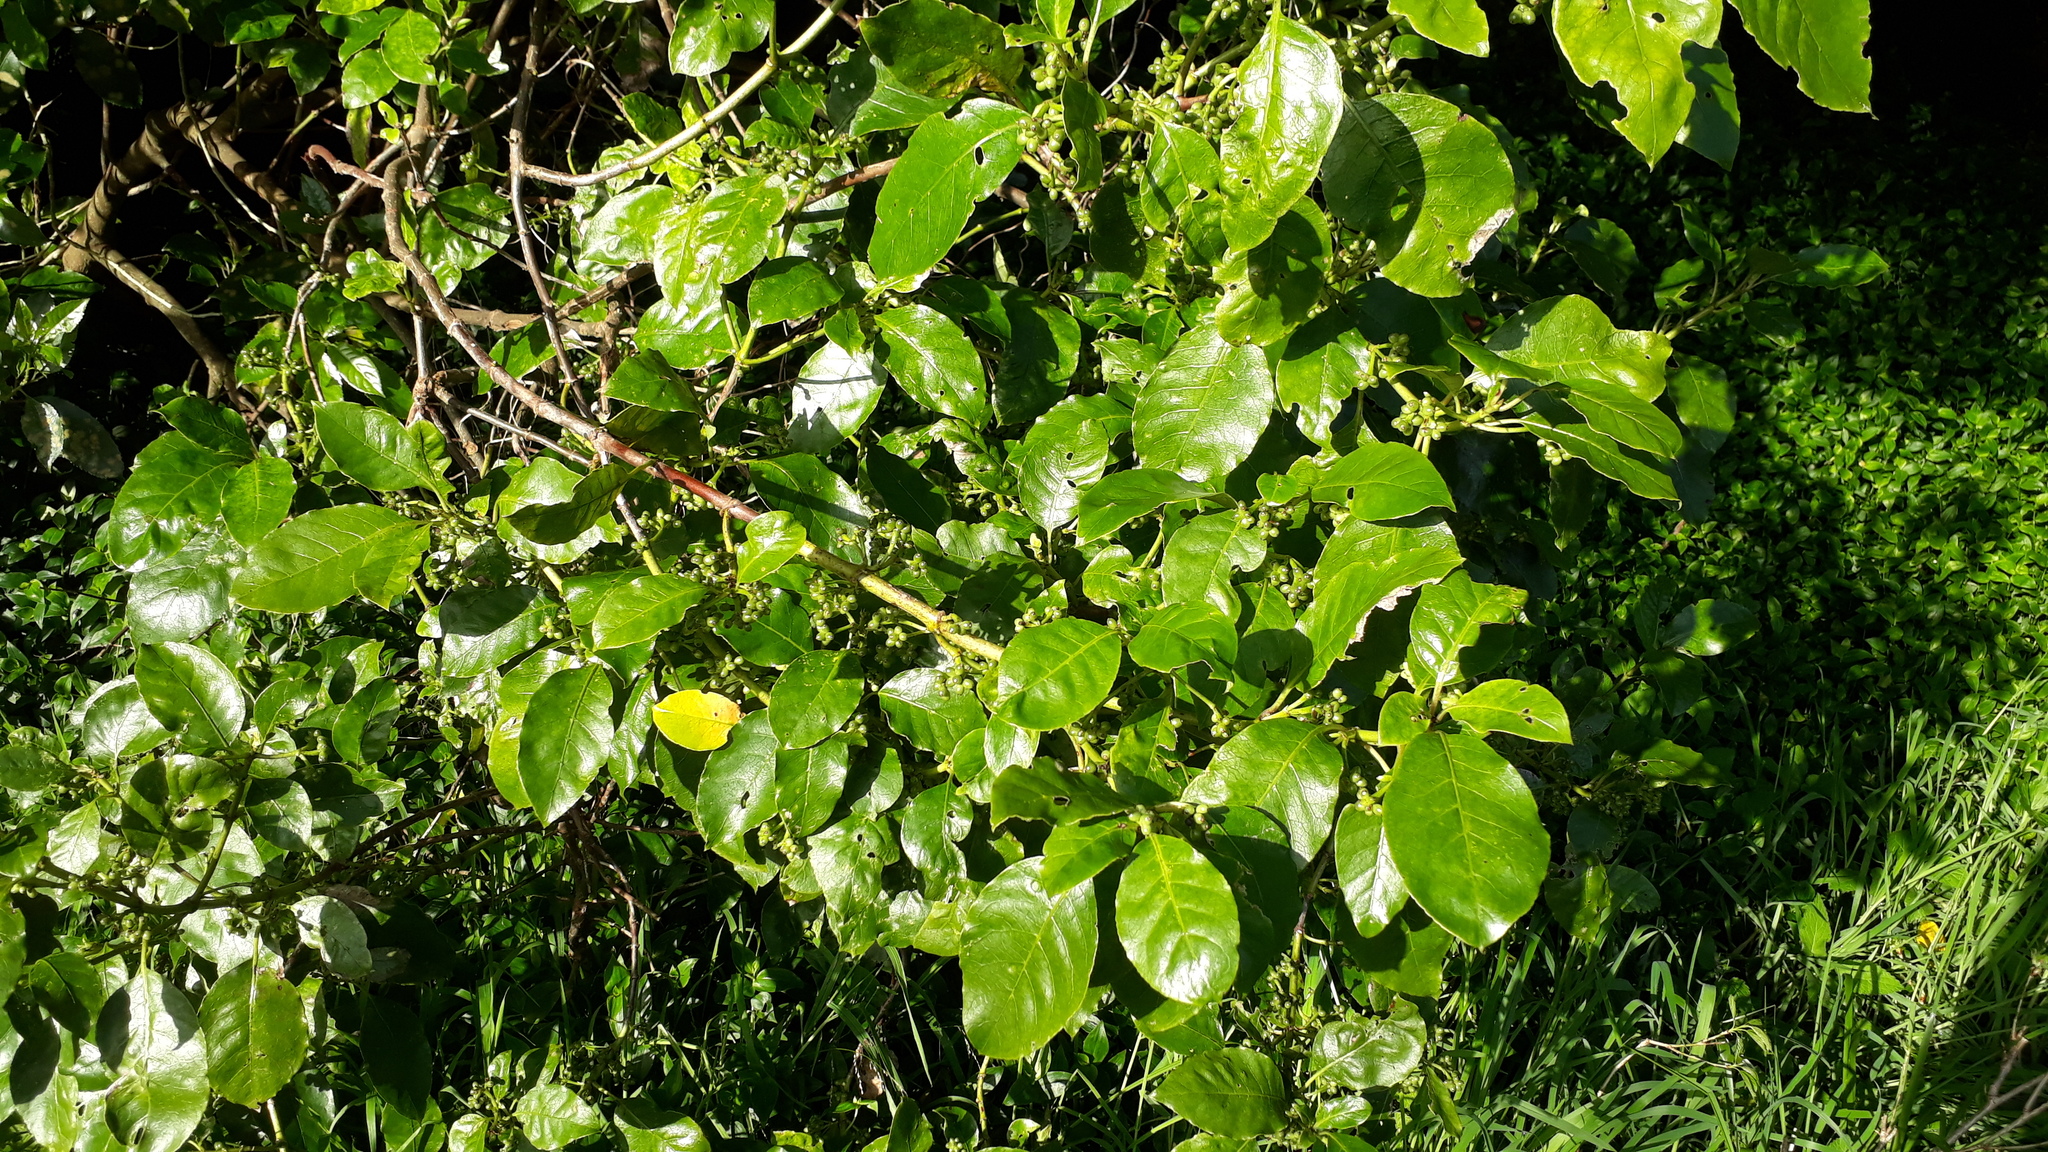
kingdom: Animalia
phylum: Arthropoda
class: Arachnida
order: Trombidiformes
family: Eriophyidae
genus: Phyllocoptes
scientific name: Phyllocoptes coprosmae
